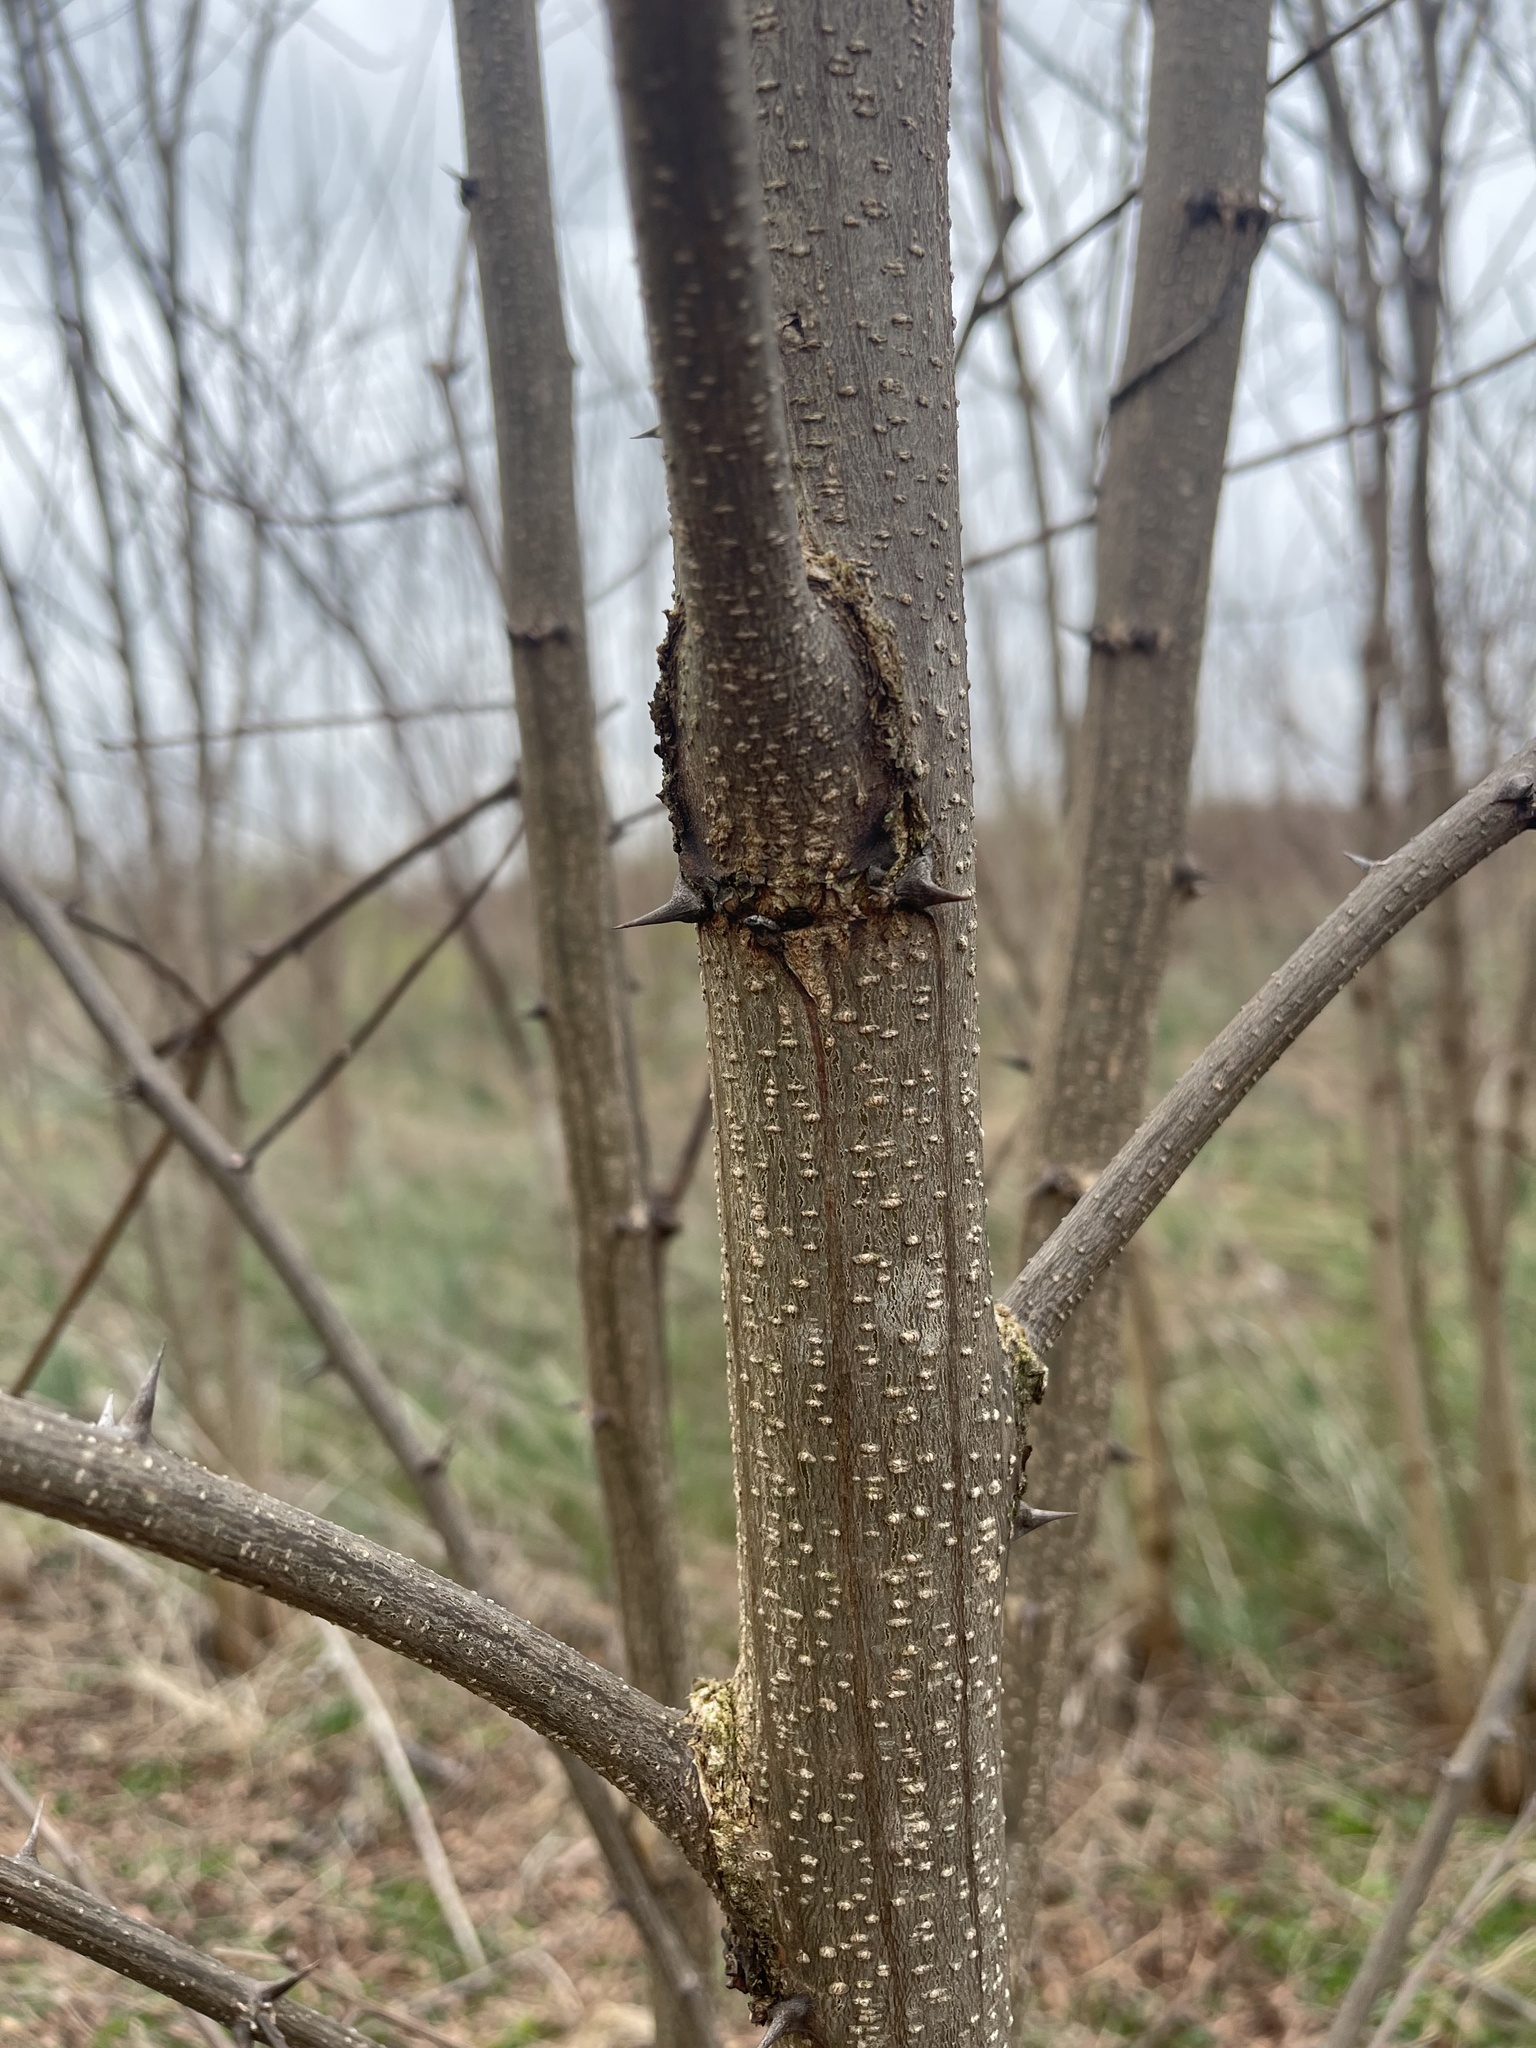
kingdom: Plantae
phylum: Tracheophyta
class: Magnoliopsida
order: Fabales
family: Fabaceae
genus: Robinia
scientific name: Robinia pseudoacacia
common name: Black locust
